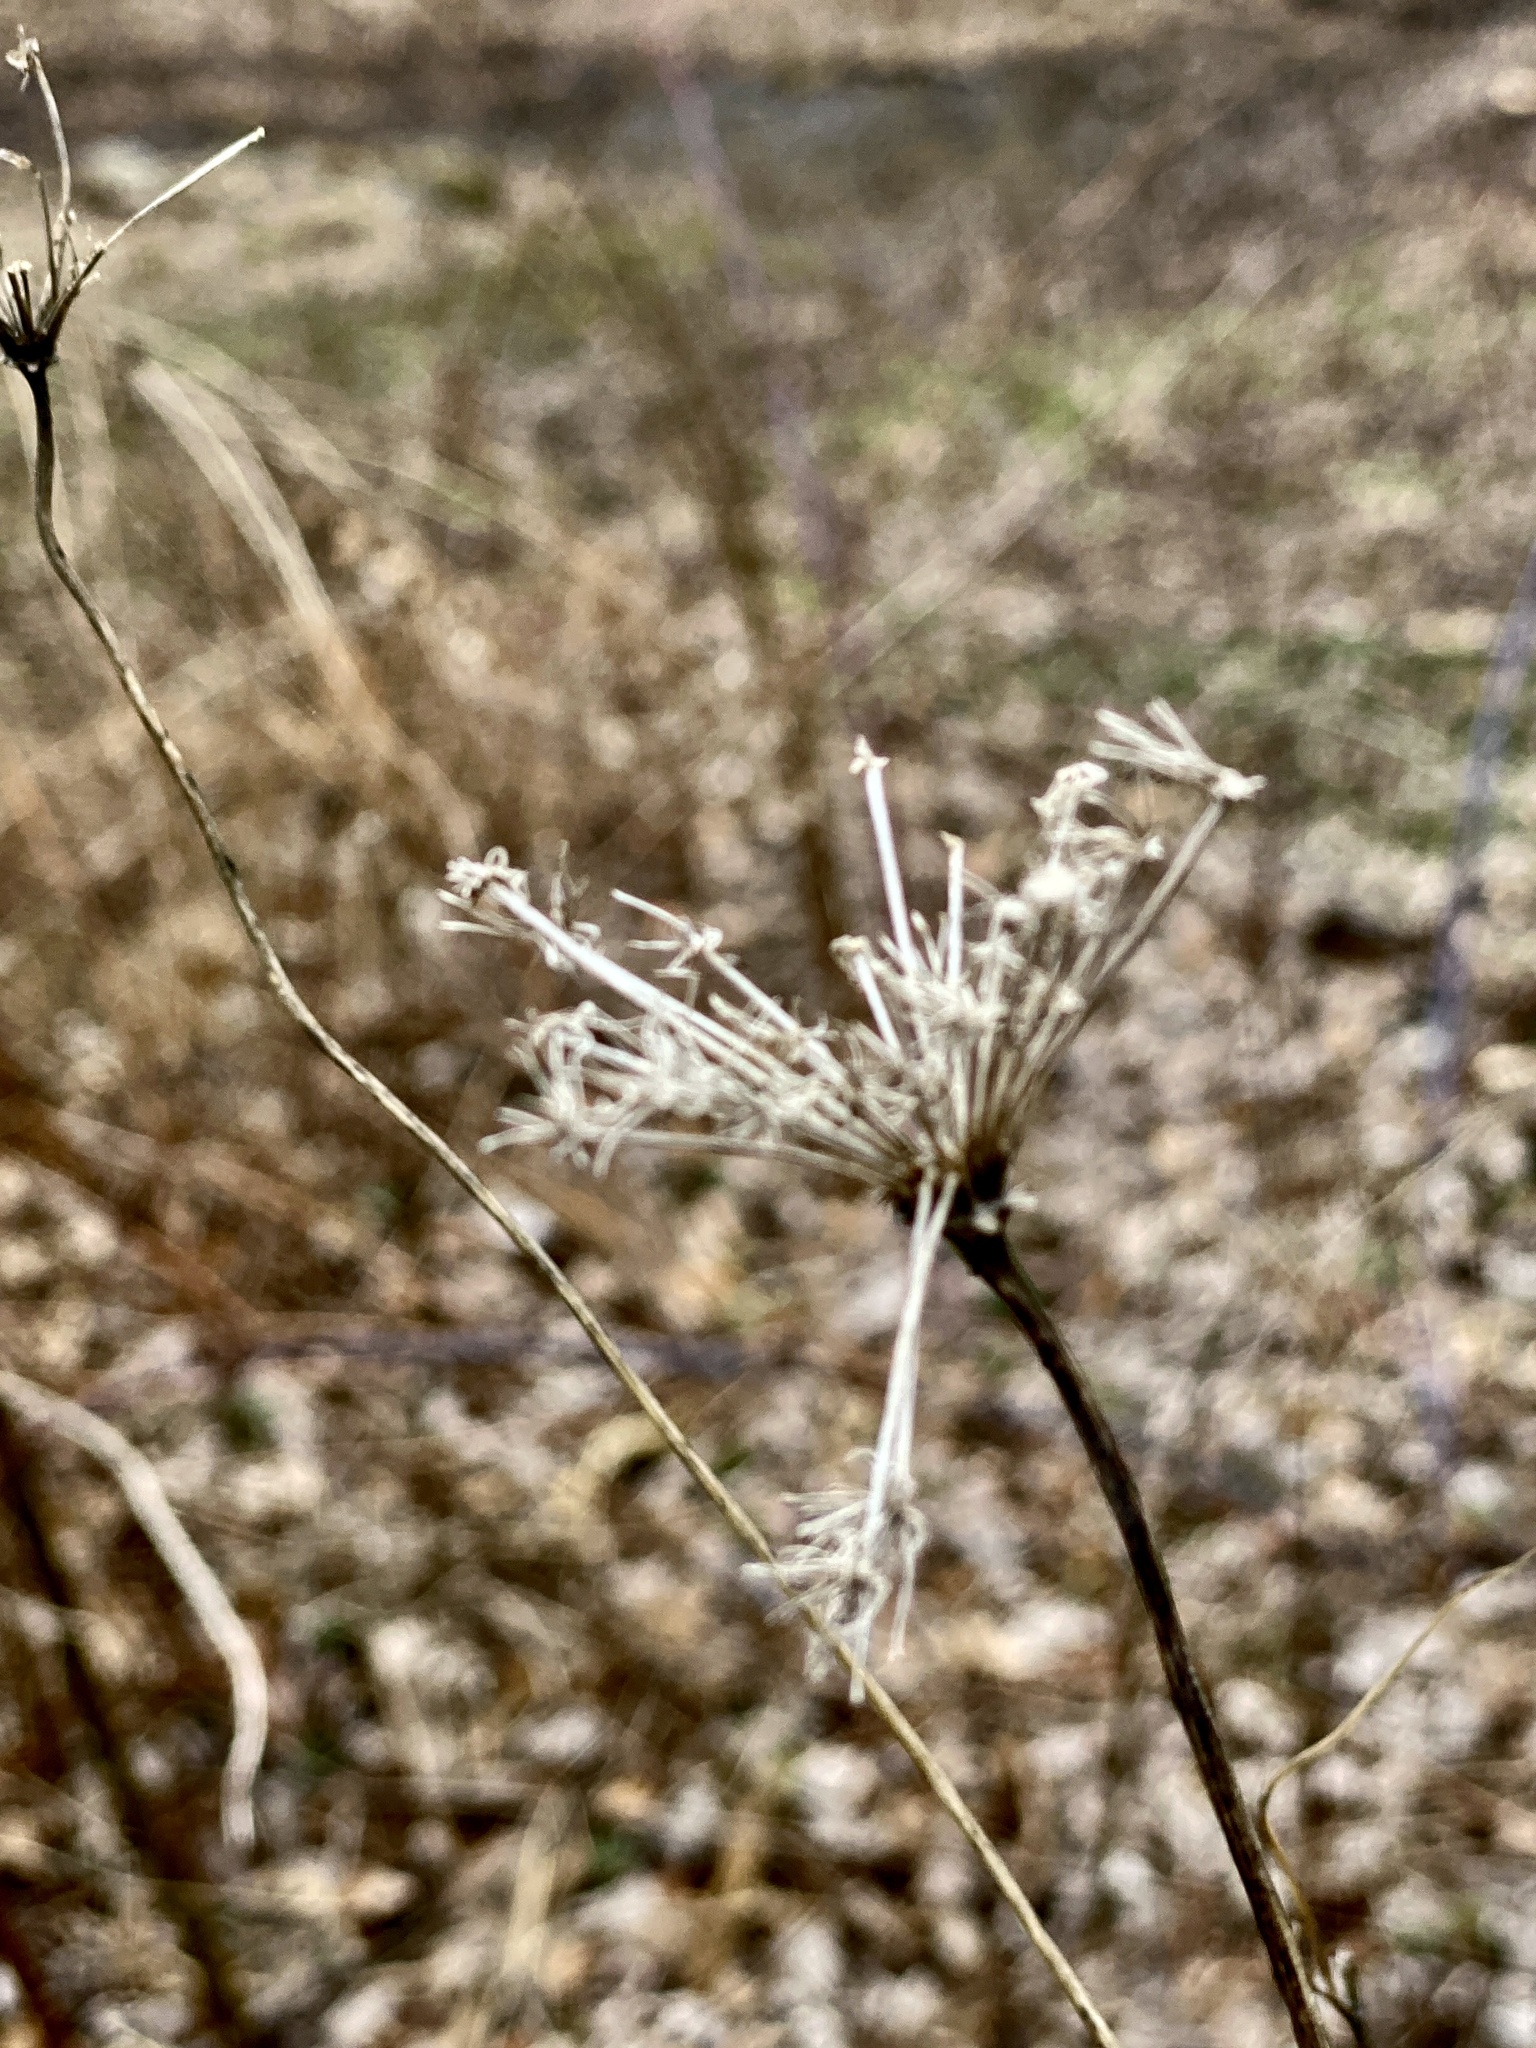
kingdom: Plantae
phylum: Tracheophyta
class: Magnoliopsida
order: Apiales
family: Apiaceae
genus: Daucus
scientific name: Daucus carota
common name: Wild carrot
